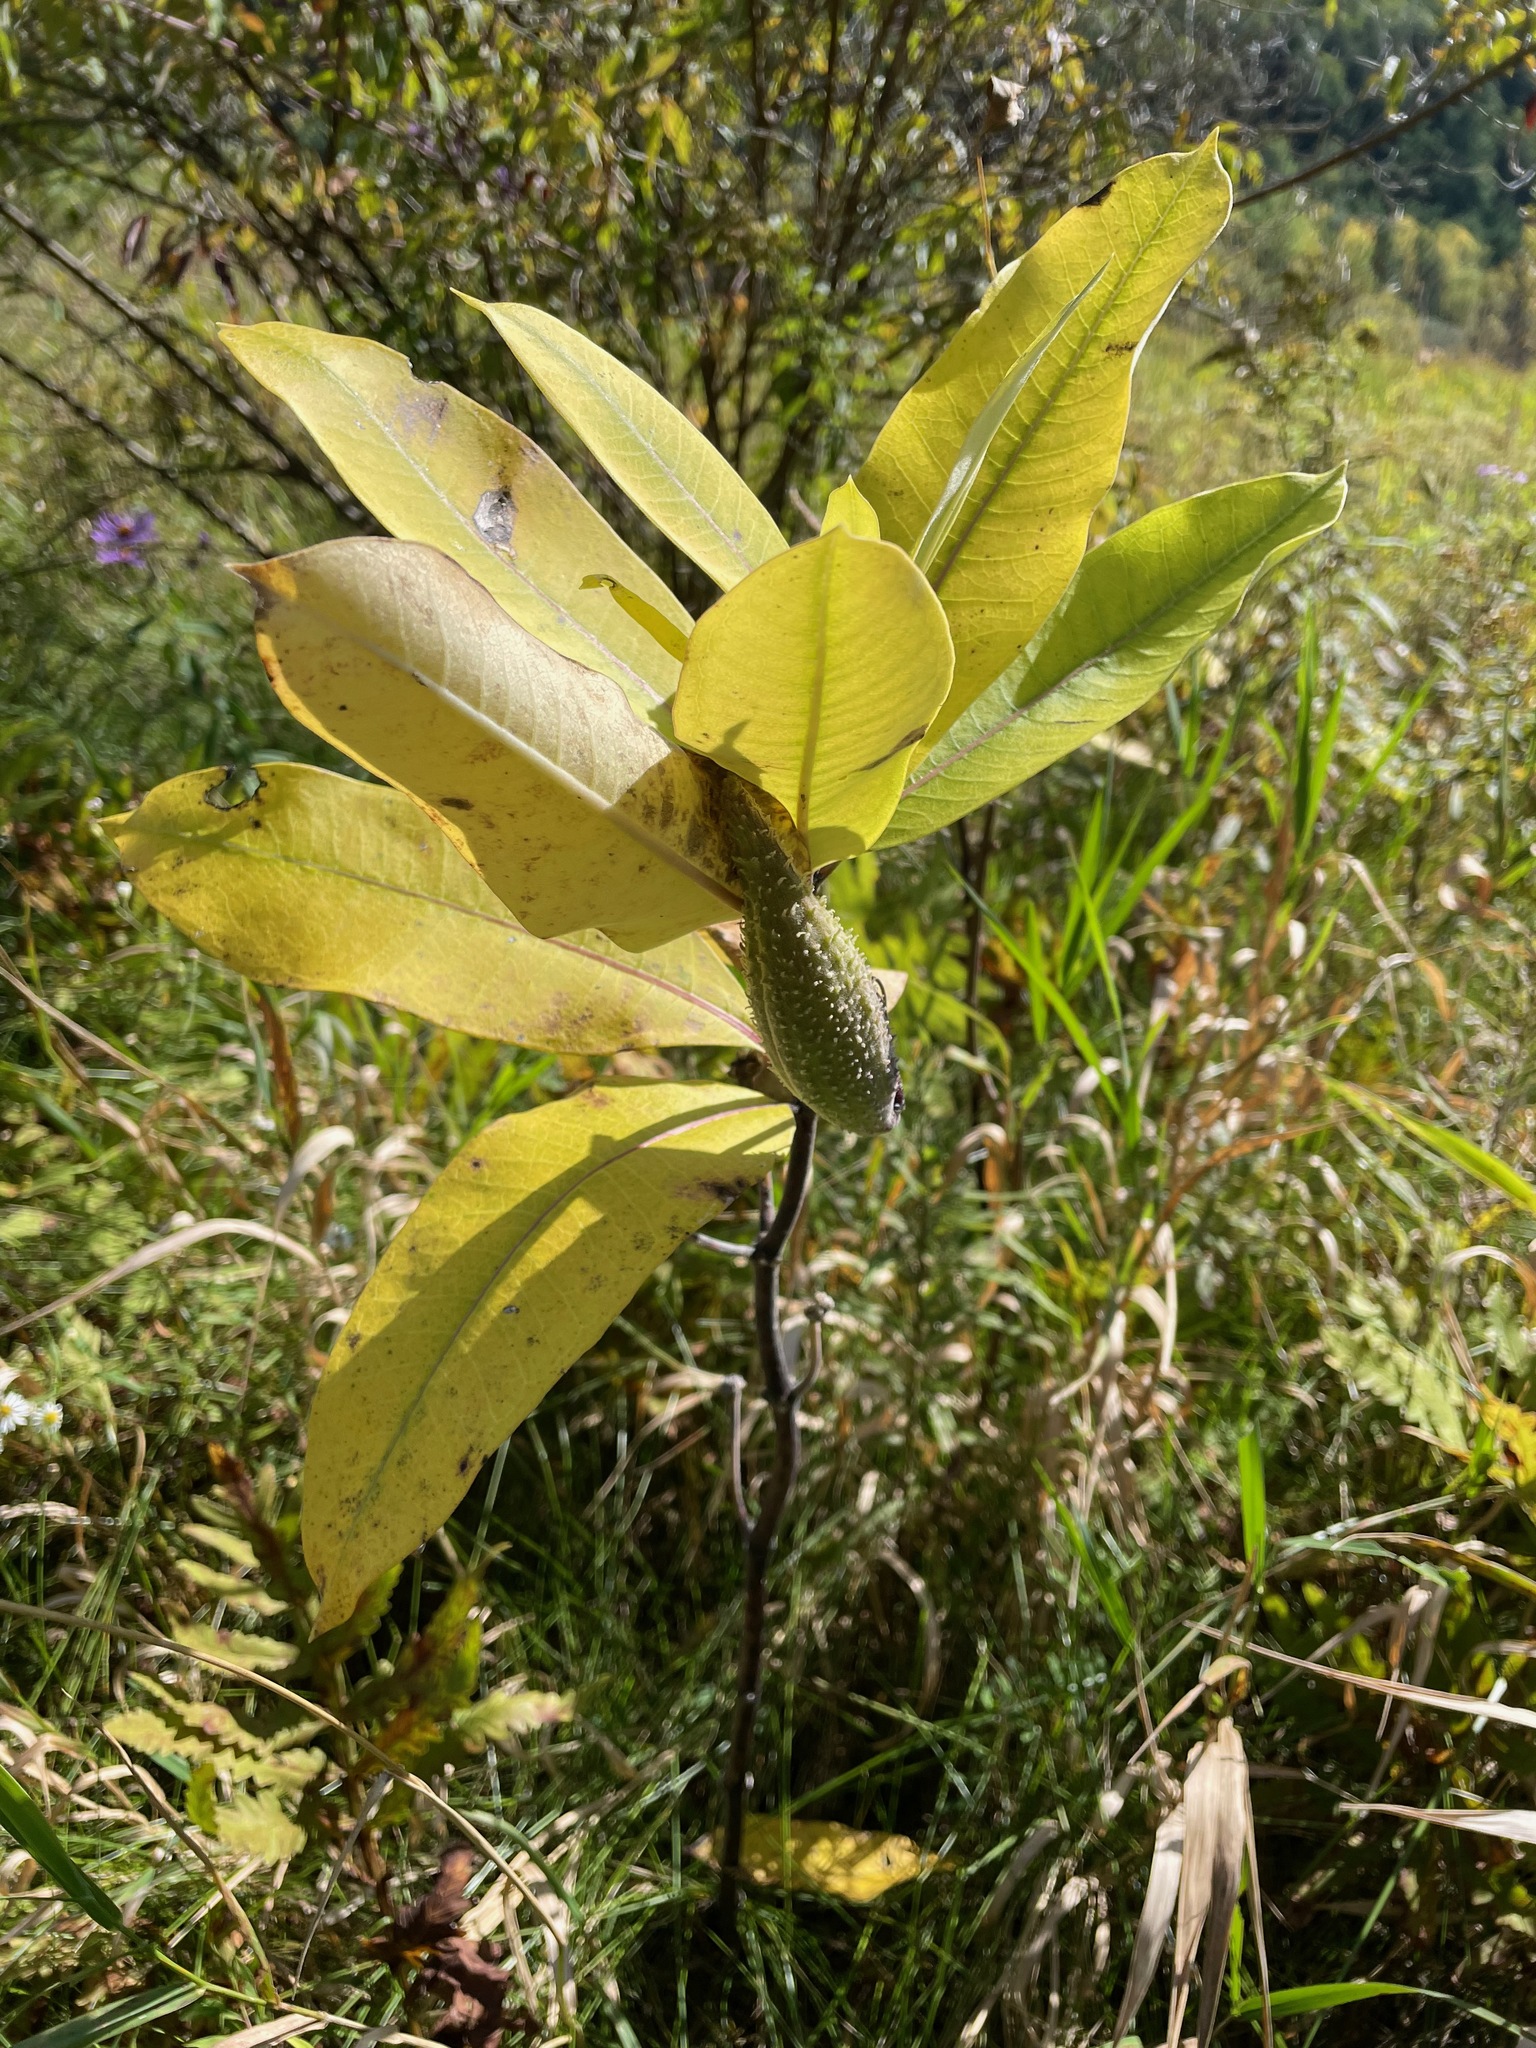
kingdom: Plantae
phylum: Tracheophyta
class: Magnoliopsida
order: Gentianales
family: Apocynaceae
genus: Asclepias
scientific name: Asclepias syriaca
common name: Common milkweed
